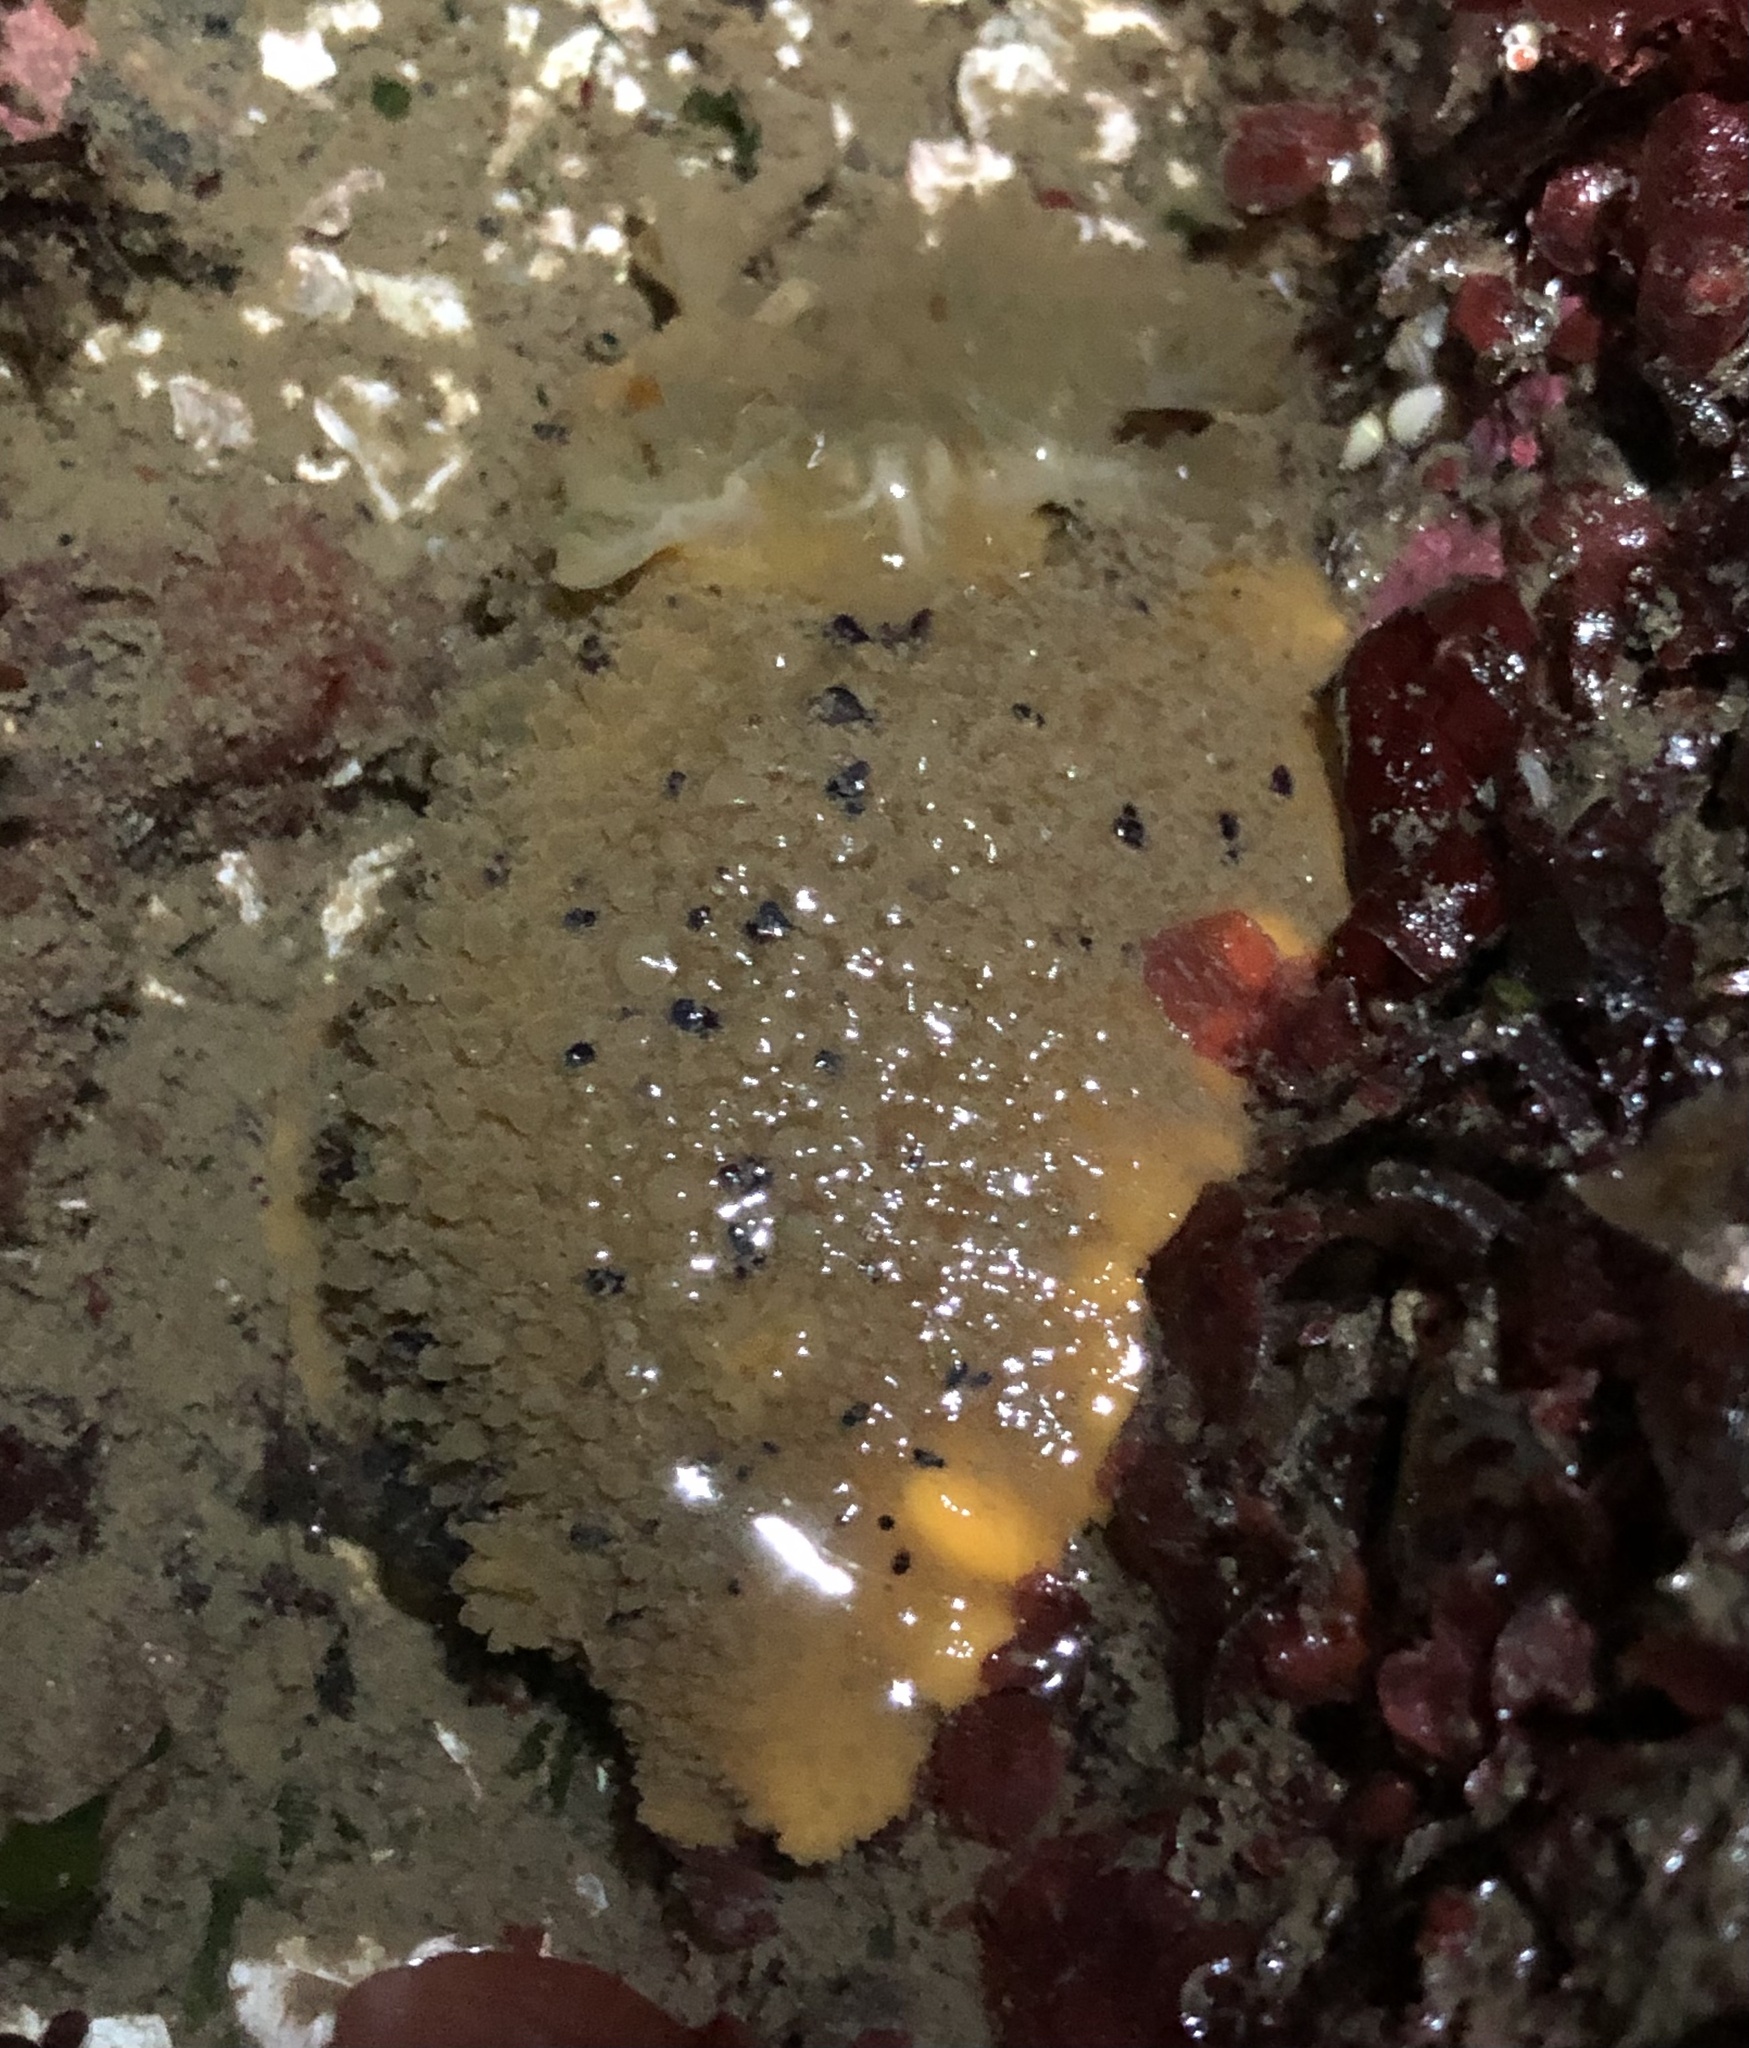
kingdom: Animalia
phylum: Mollusca
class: Gastropoda
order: Nudibranchia
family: Dorididae
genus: Doris
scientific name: Doris montereyensis
